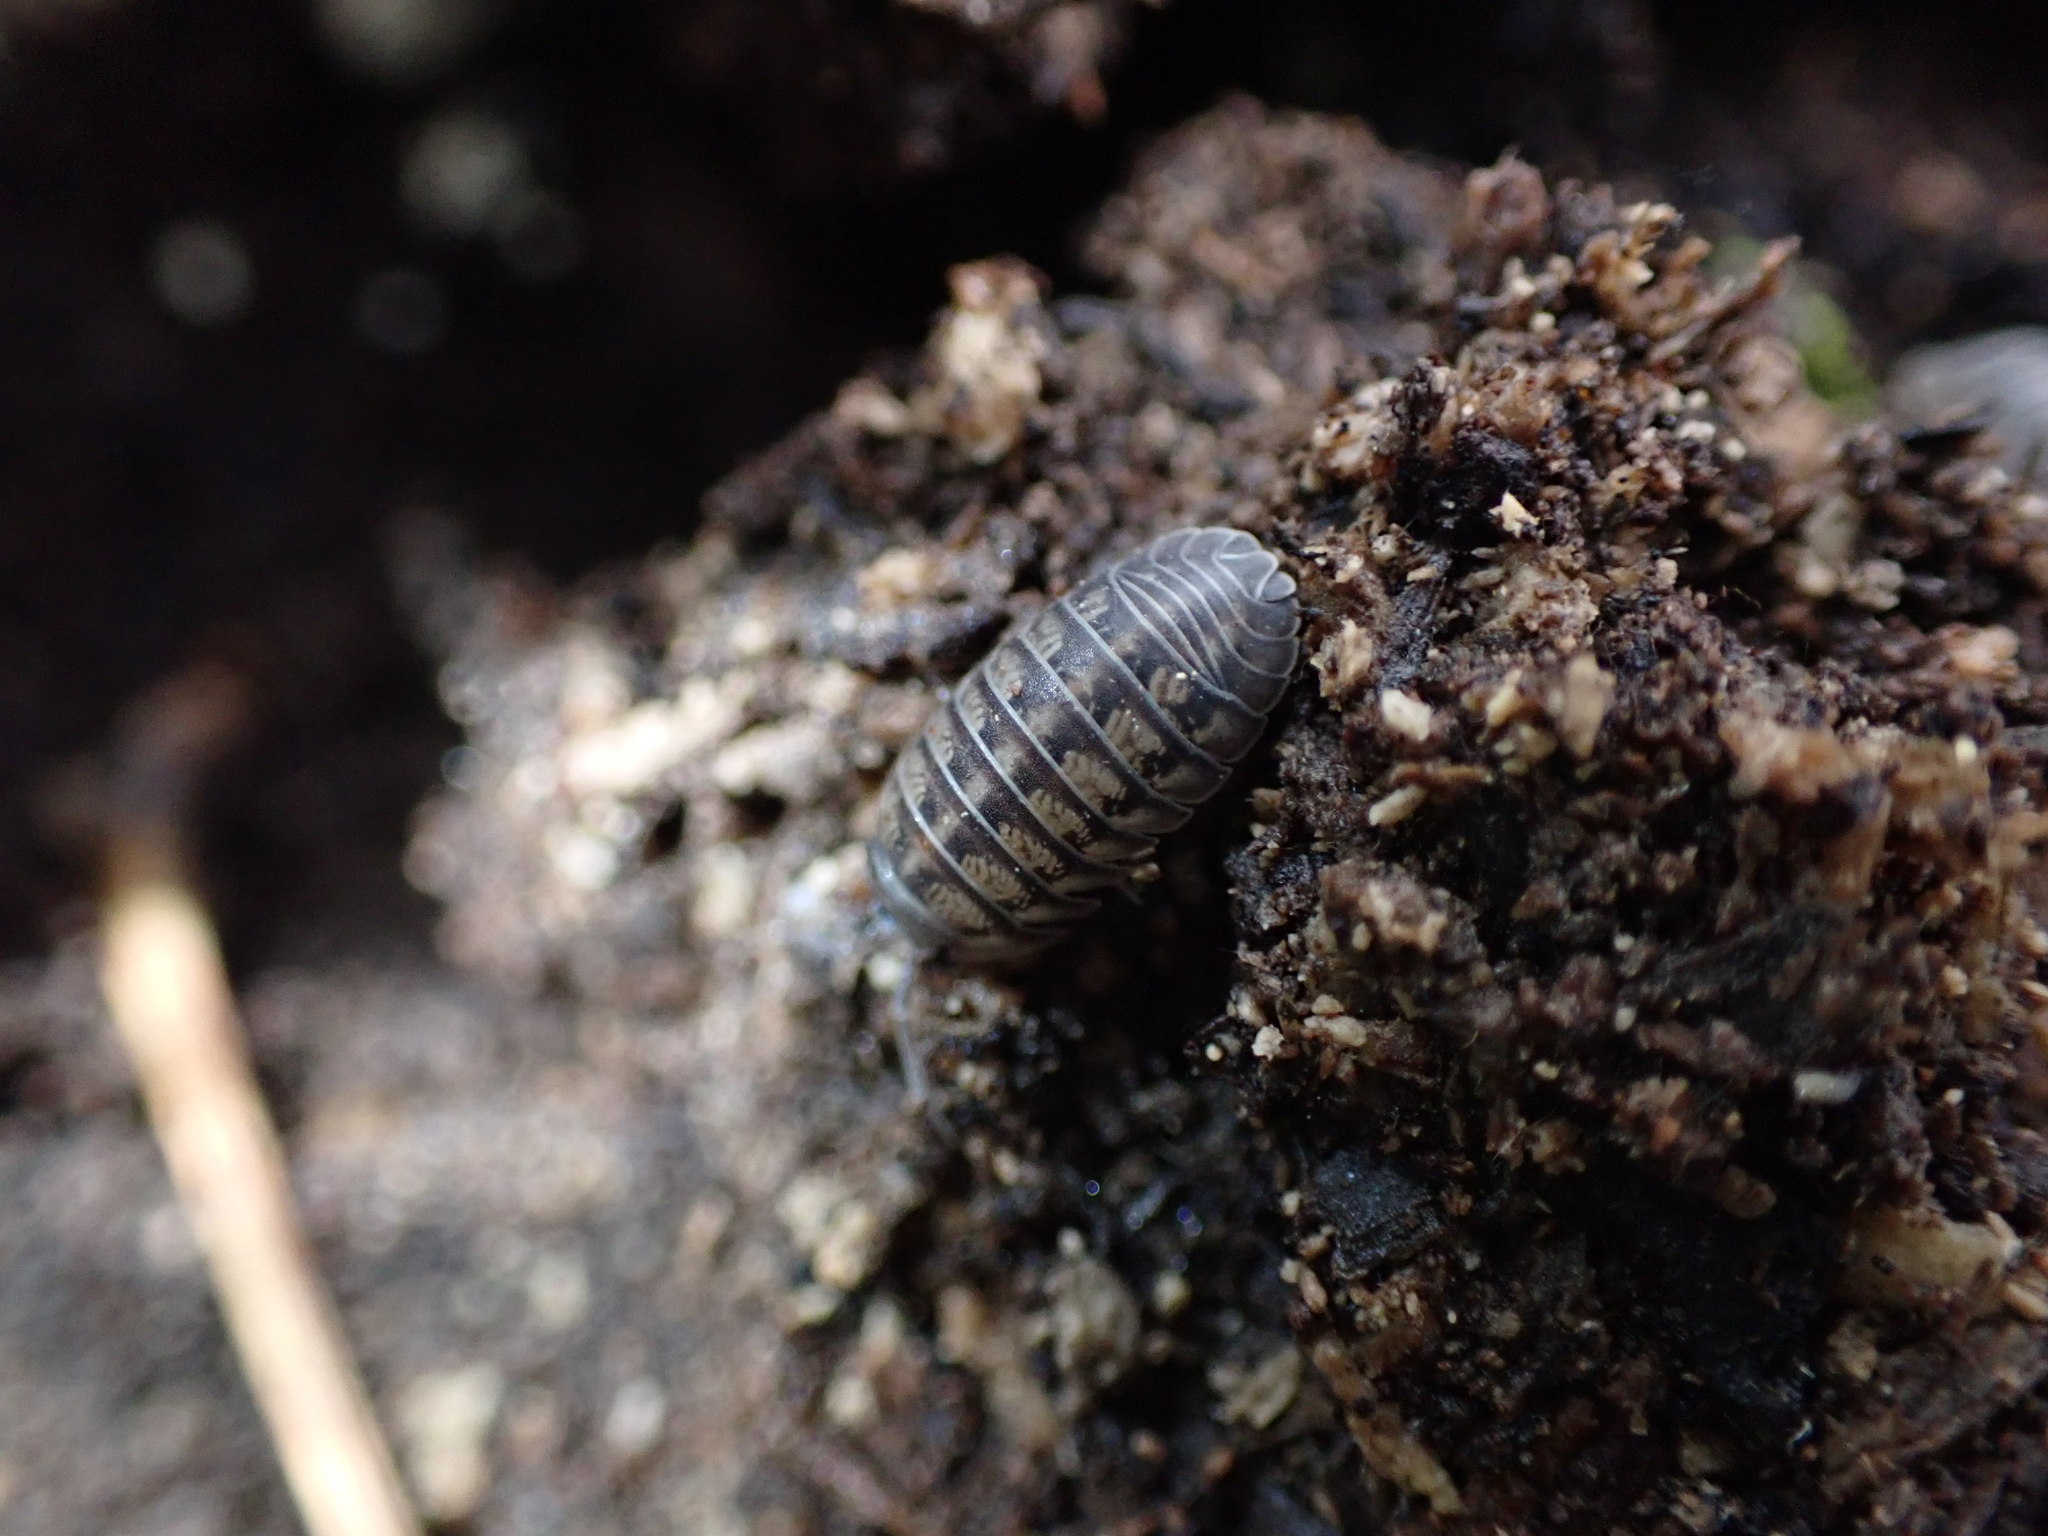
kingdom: Animalia
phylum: Arthropoda
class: Malacostraca
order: Isopoda
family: Armadillidiidae
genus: Armadillidium
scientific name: Armadillidium nasatum
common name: Isopod
